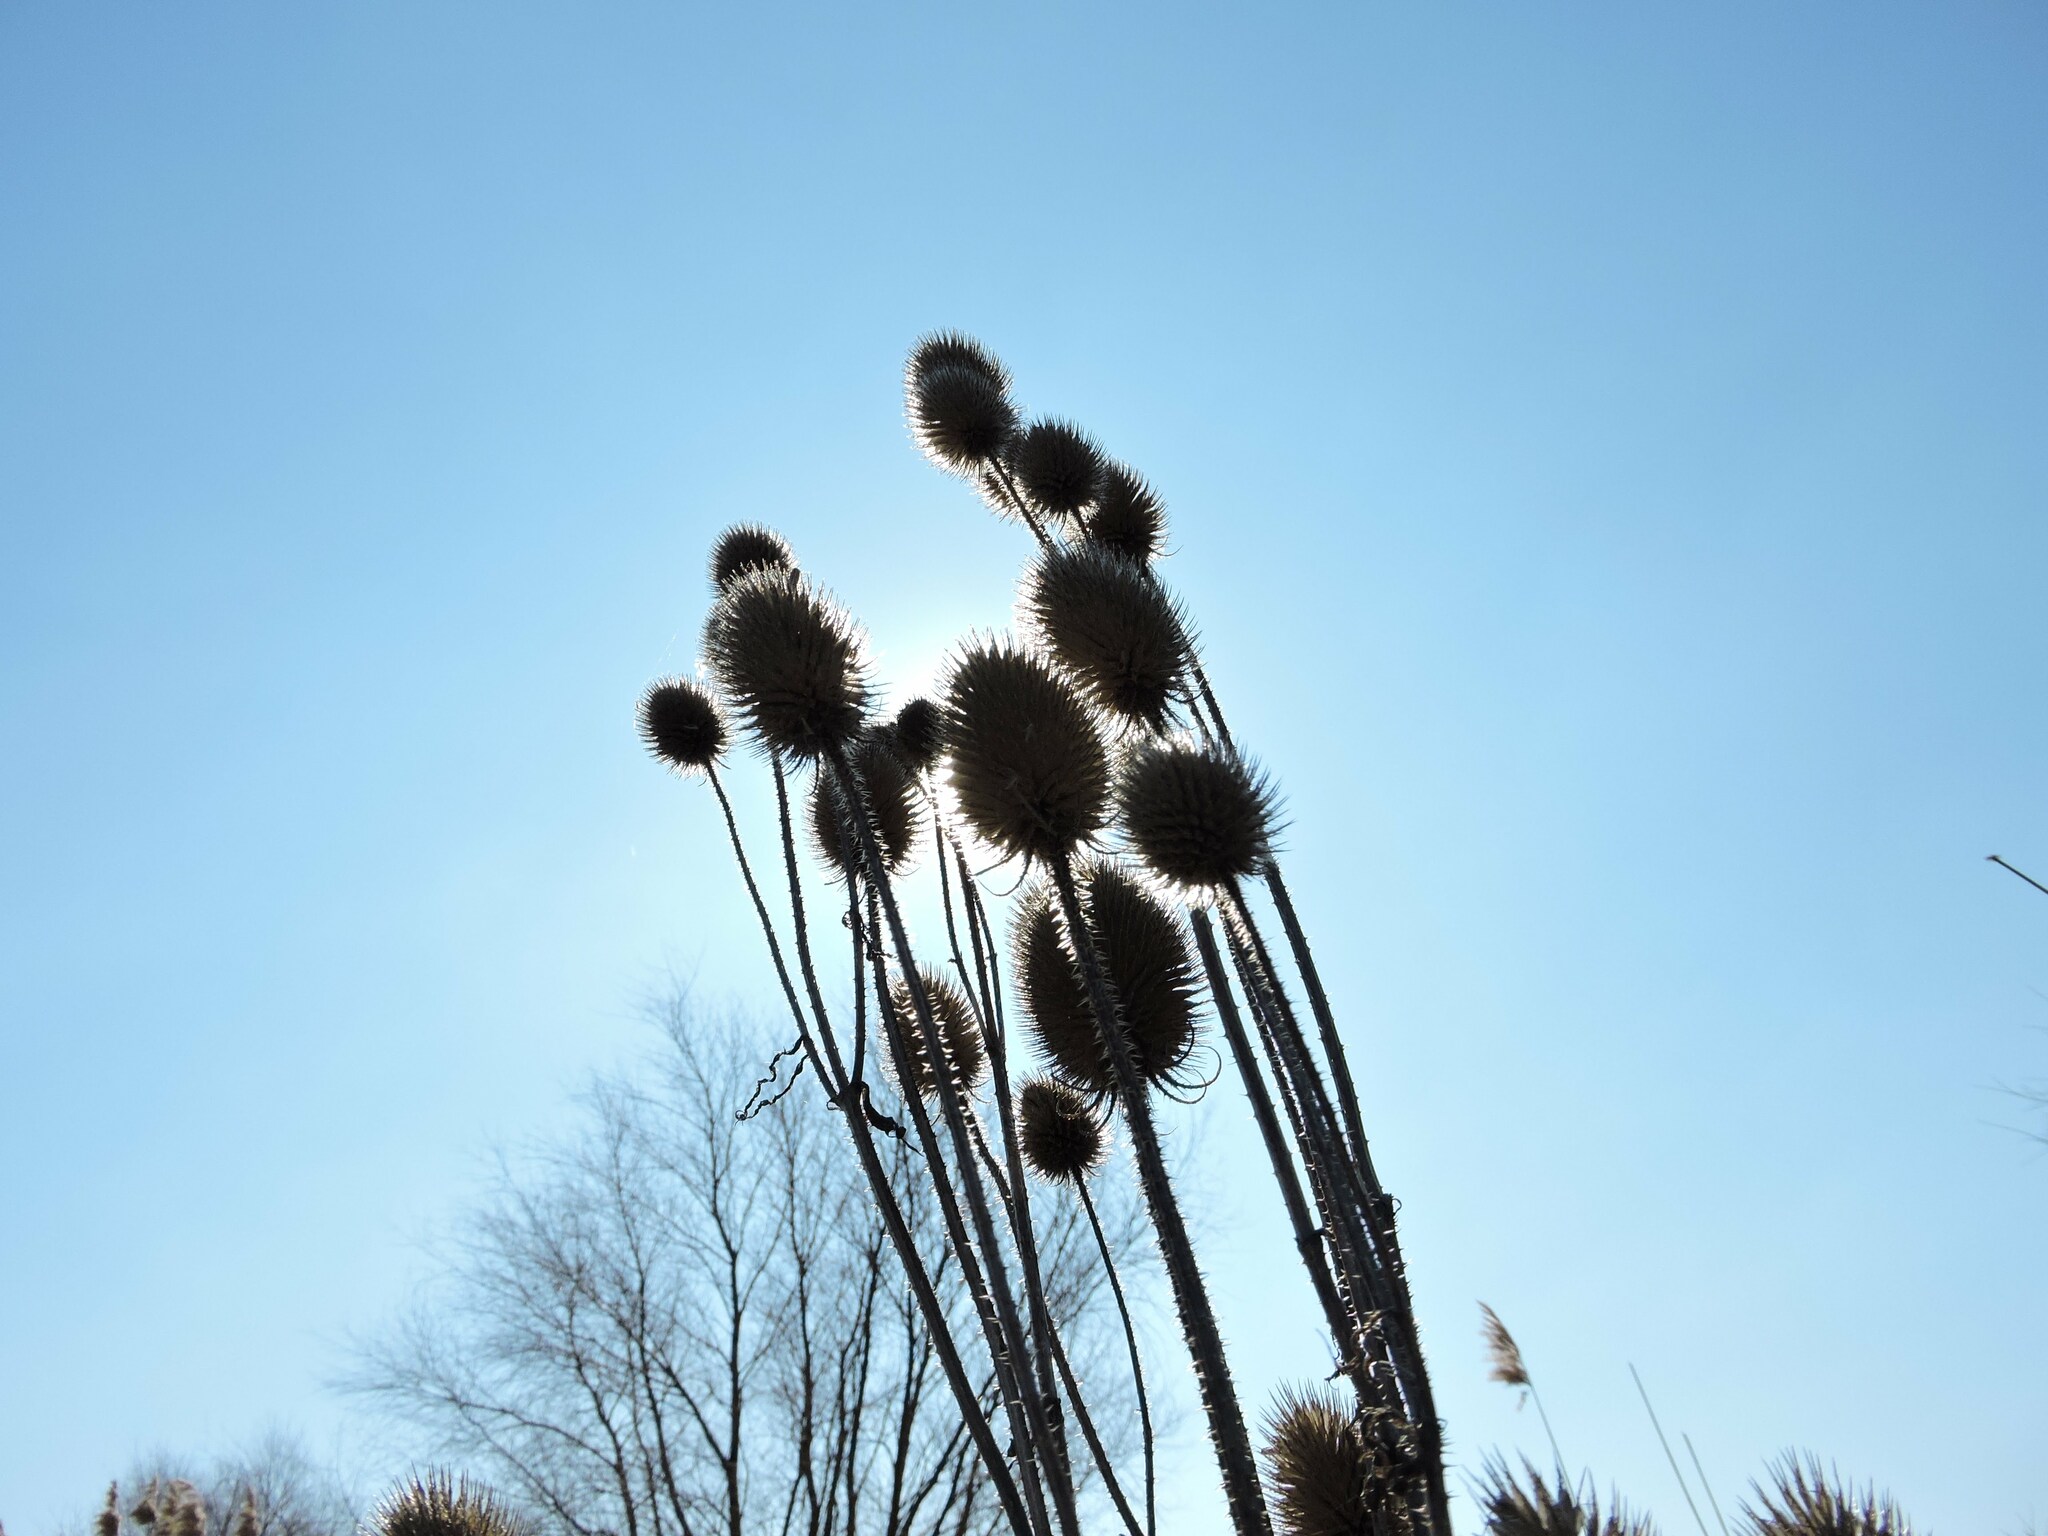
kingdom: Plantae
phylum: Tracheophyta
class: Magnoliopsida
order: Dipsacales
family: Caprifoliaceae
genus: Dipsacus
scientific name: Dipsacus
